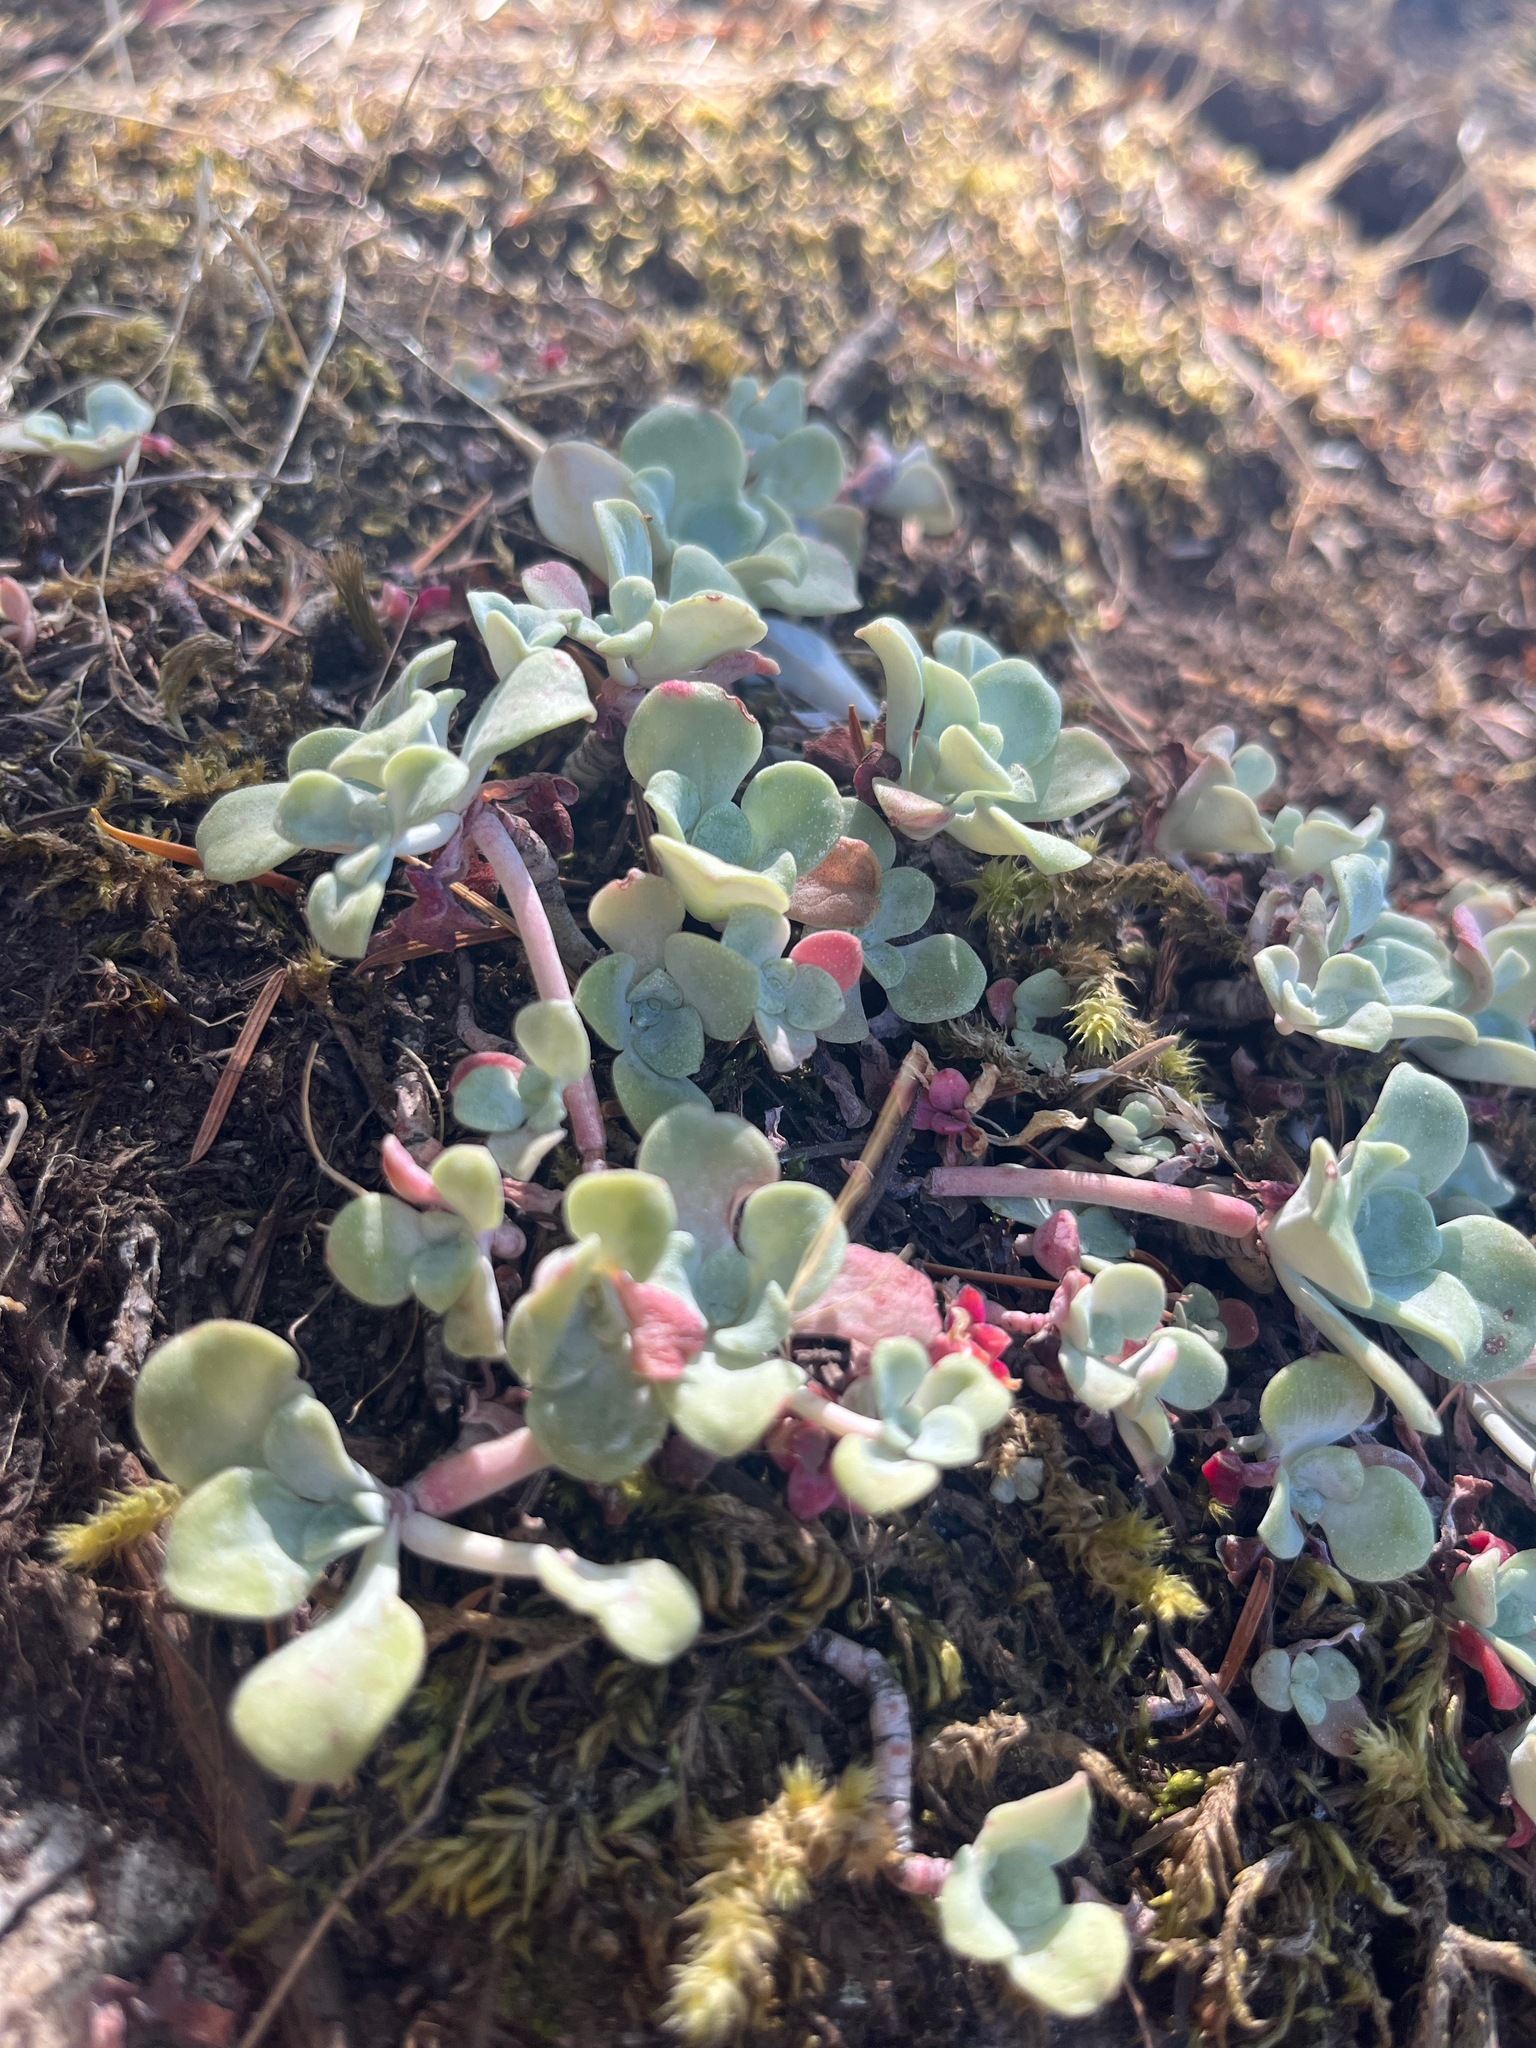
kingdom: Plantae
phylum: Tracheophyta
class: Magnoliopsida
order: Saxifragales
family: Crassulaceae
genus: Sedum
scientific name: Sedum spathulifolium
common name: Colorado stonecrop
